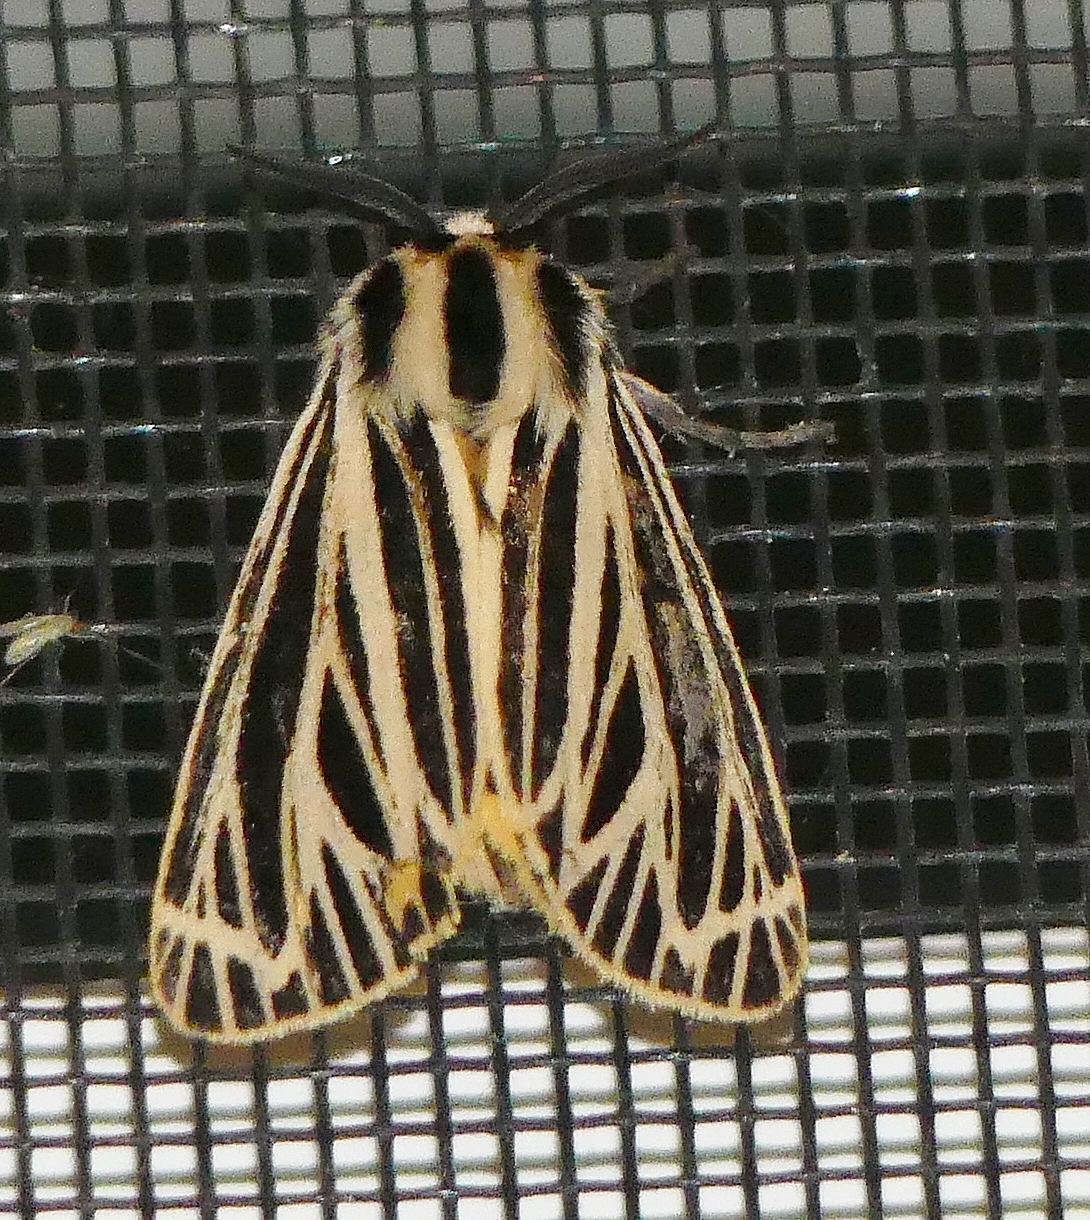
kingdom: Animalia
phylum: Arthropoda
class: Insecta
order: Lepidoptera
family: Erebidae
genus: Grammia
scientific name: Grammia virguncula
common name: Little tiger moth
